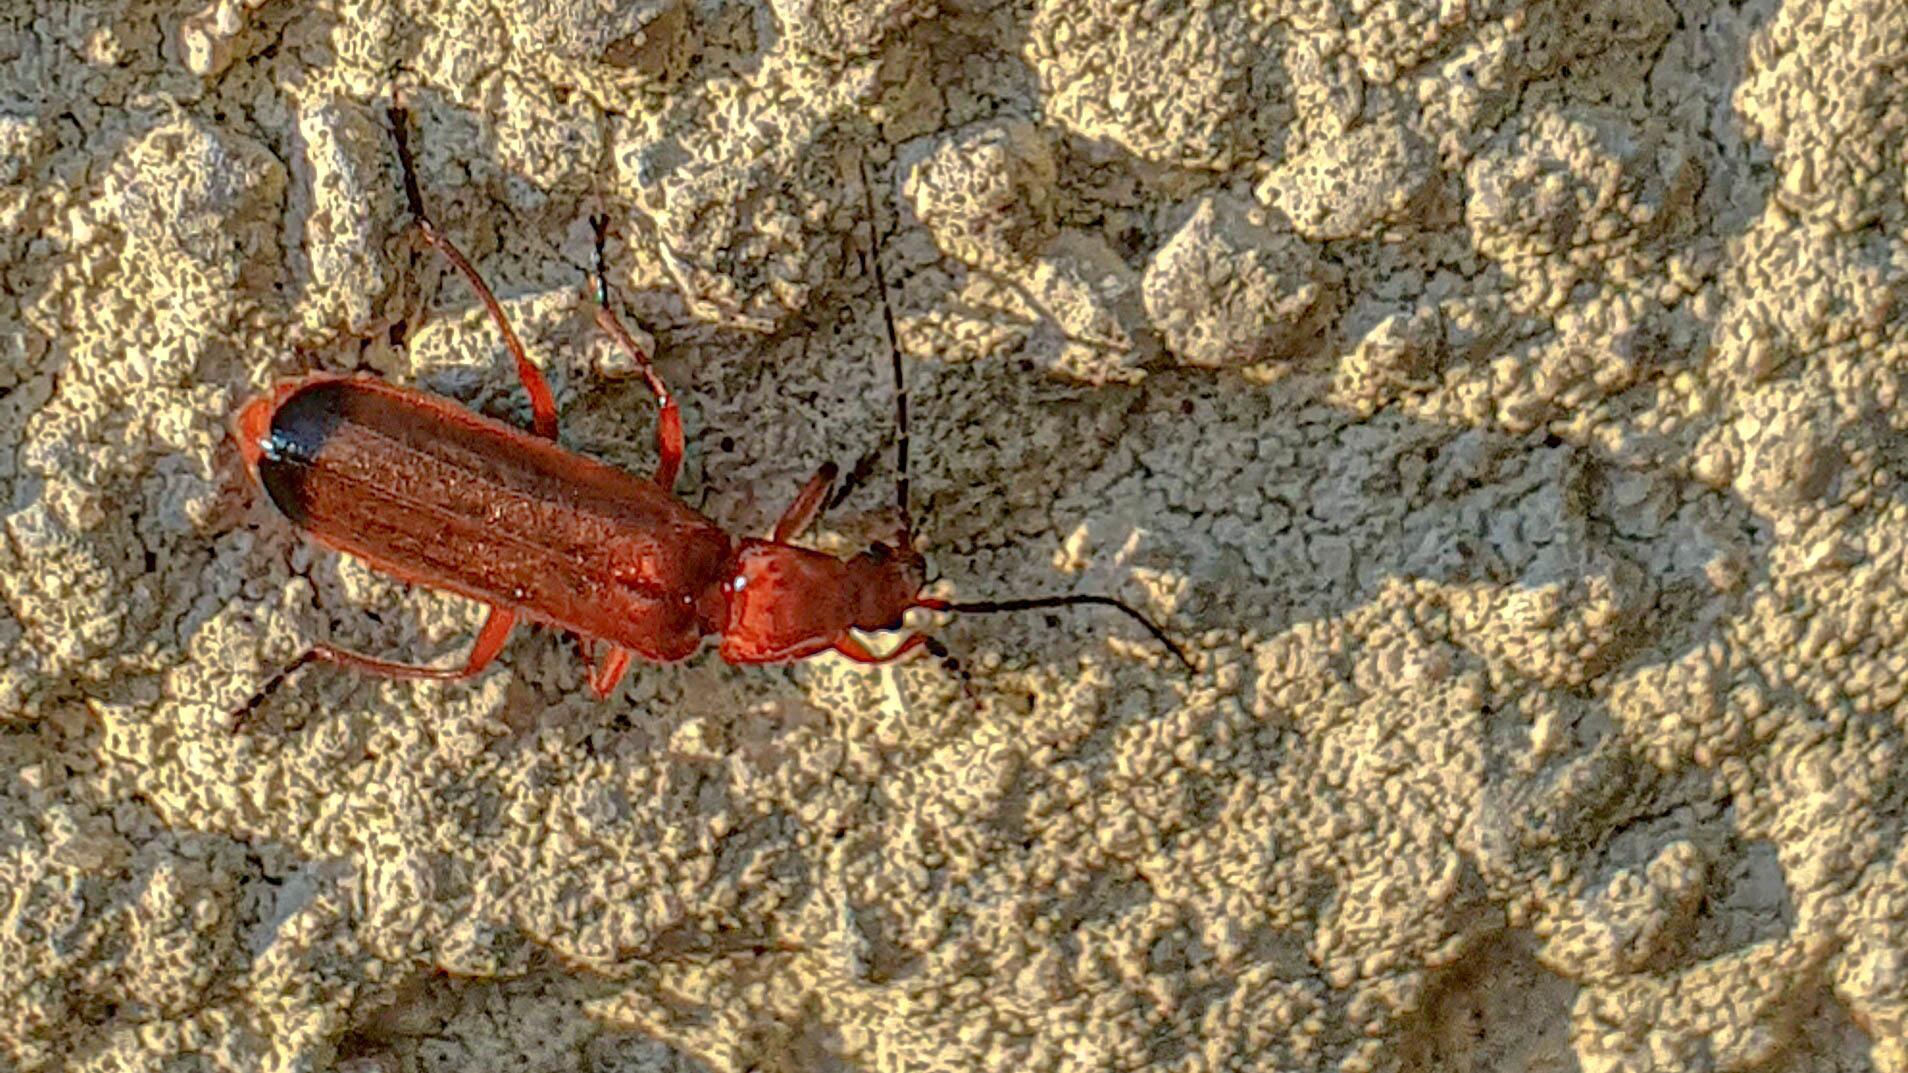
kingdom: Animalia
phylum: Arthropoda
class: Insecta
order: Coleoptera
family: Cantharidae
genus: Rhagonycha
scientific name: Rhagonycha fulva
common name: Common red soldier beetle
